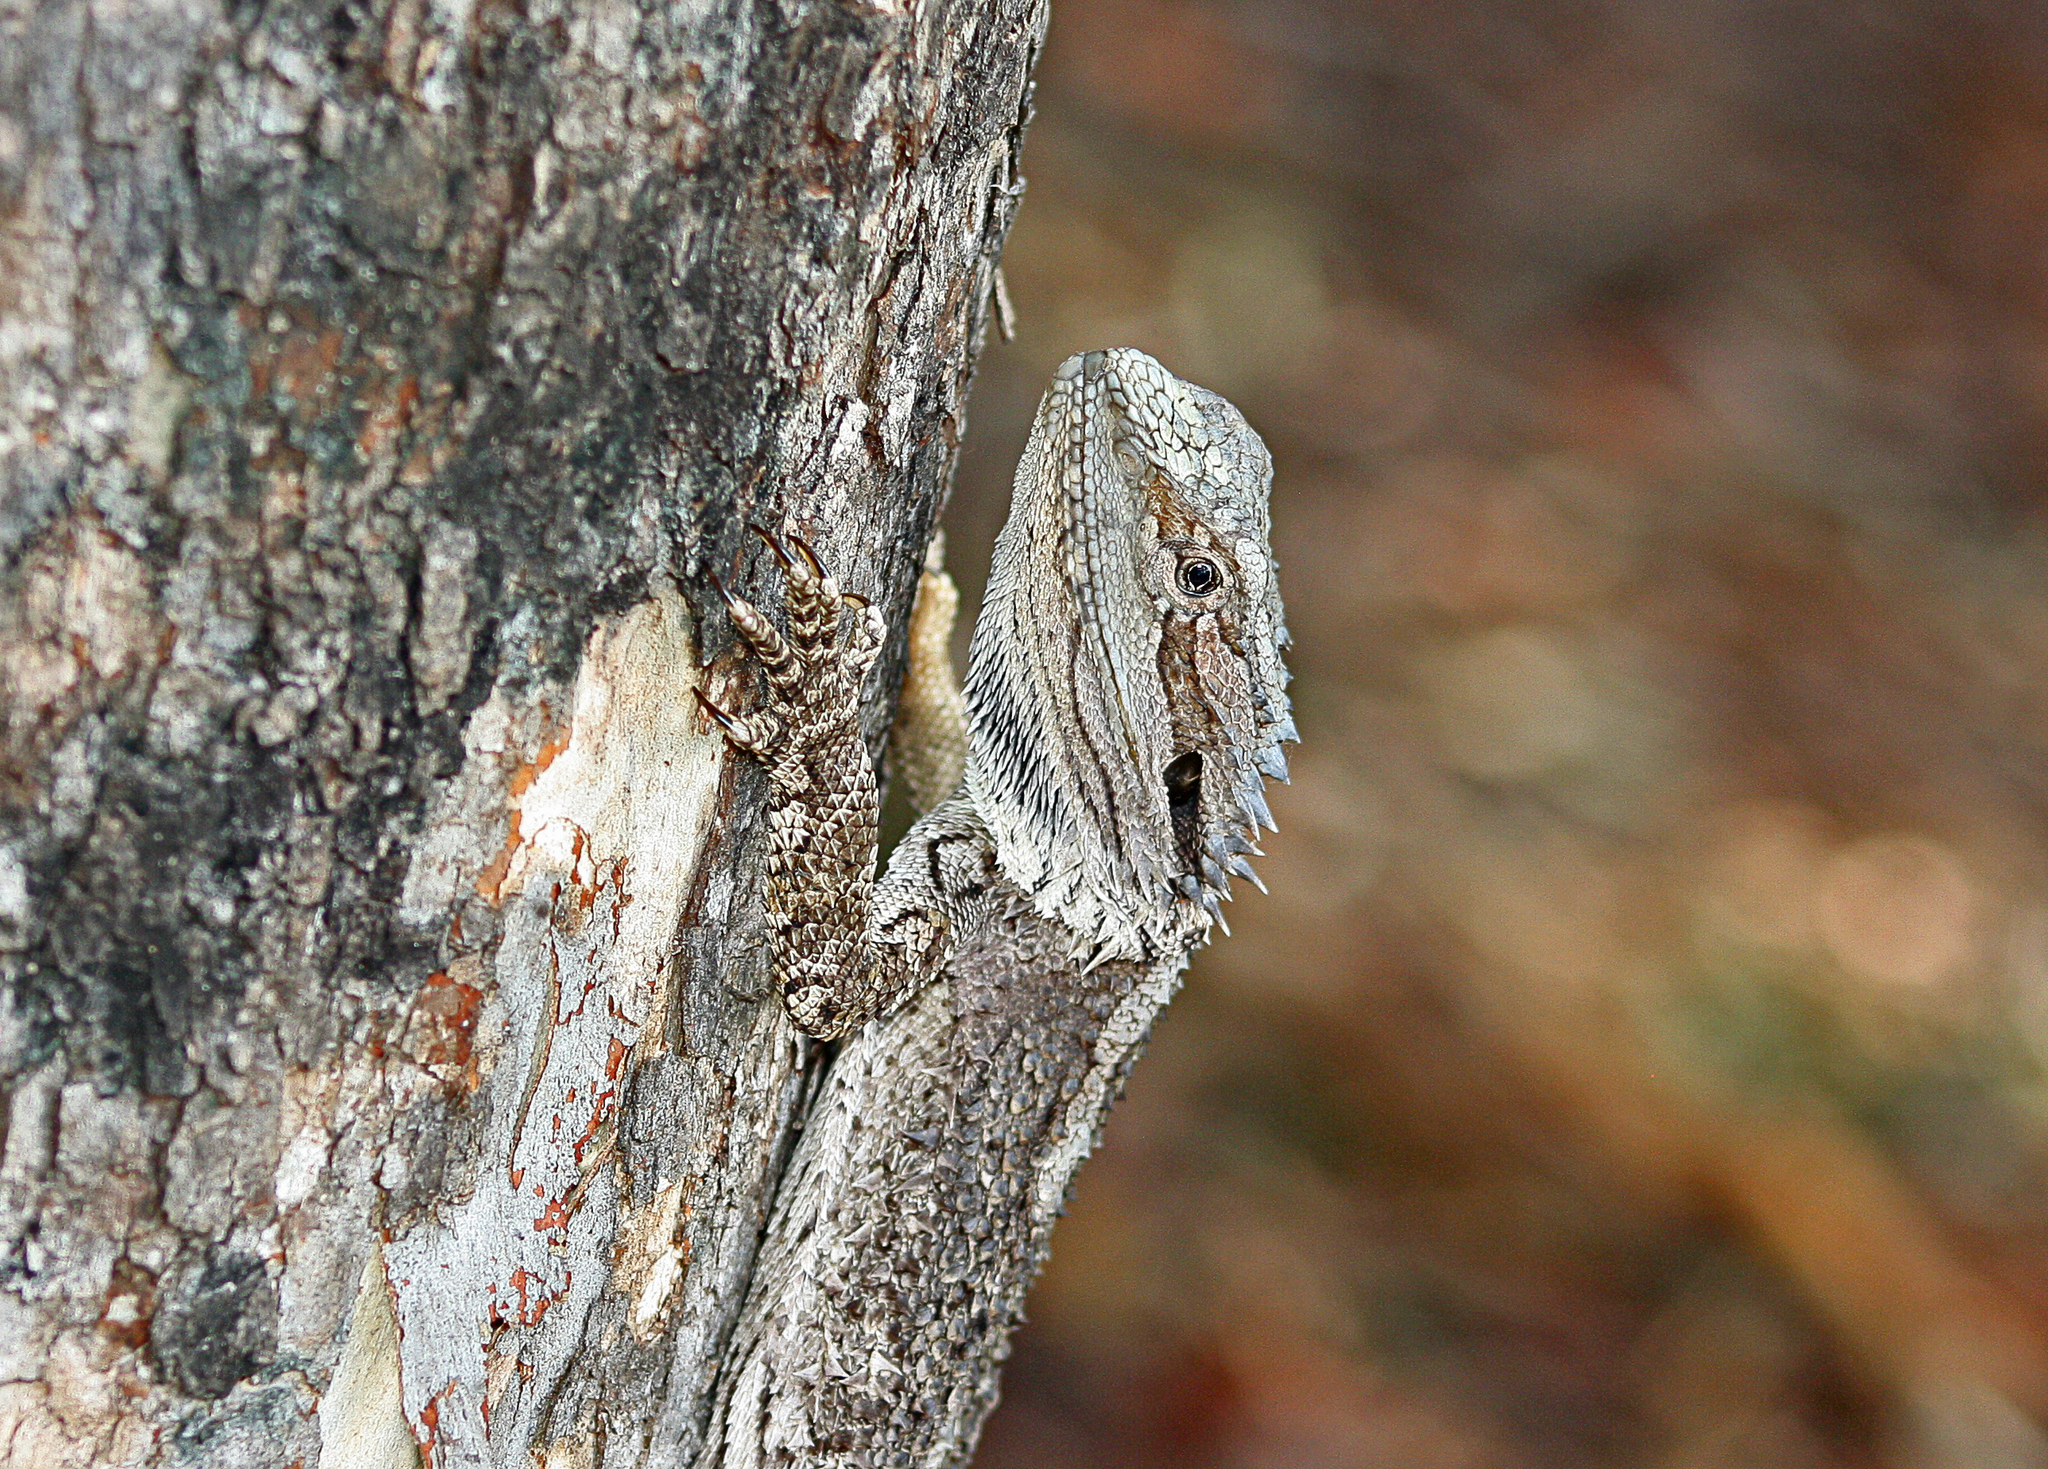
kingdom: Animalia
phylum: Chordata
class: Squamata
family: Agamidae
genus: Pogona
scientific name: Pogona barbata
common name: Bearded dragon
